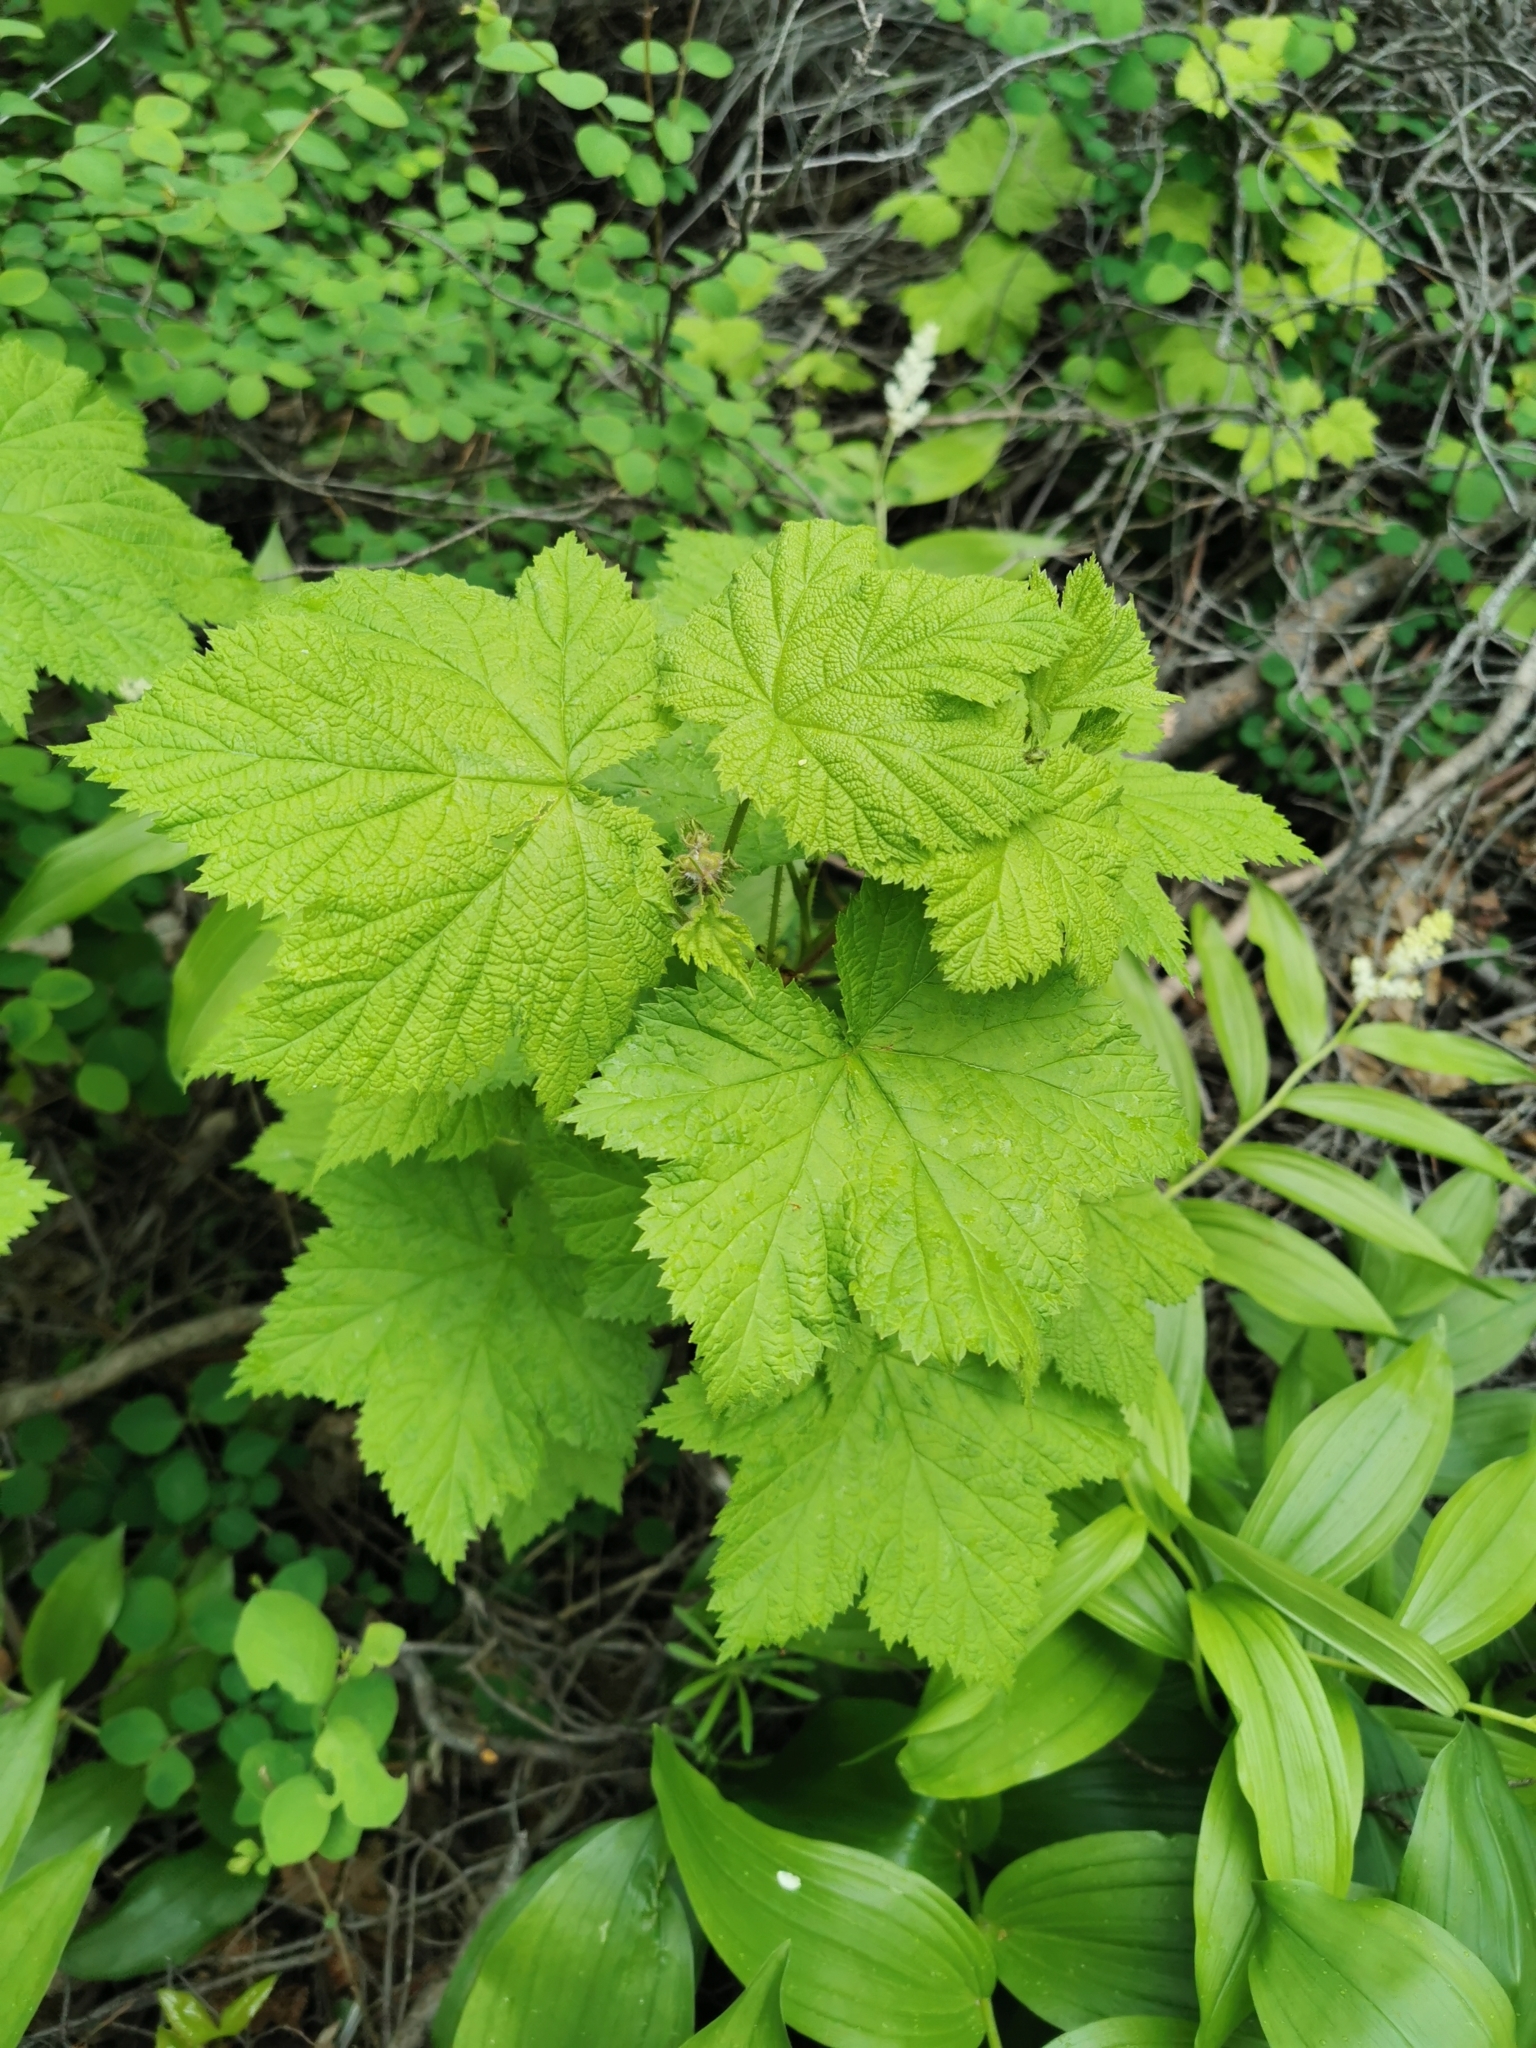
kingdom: Plantae
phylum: Tracheophyta
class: Magnoliopsida
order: Rosales
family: Rosaceae
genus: Rubus
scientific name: Rubus parviflorus
